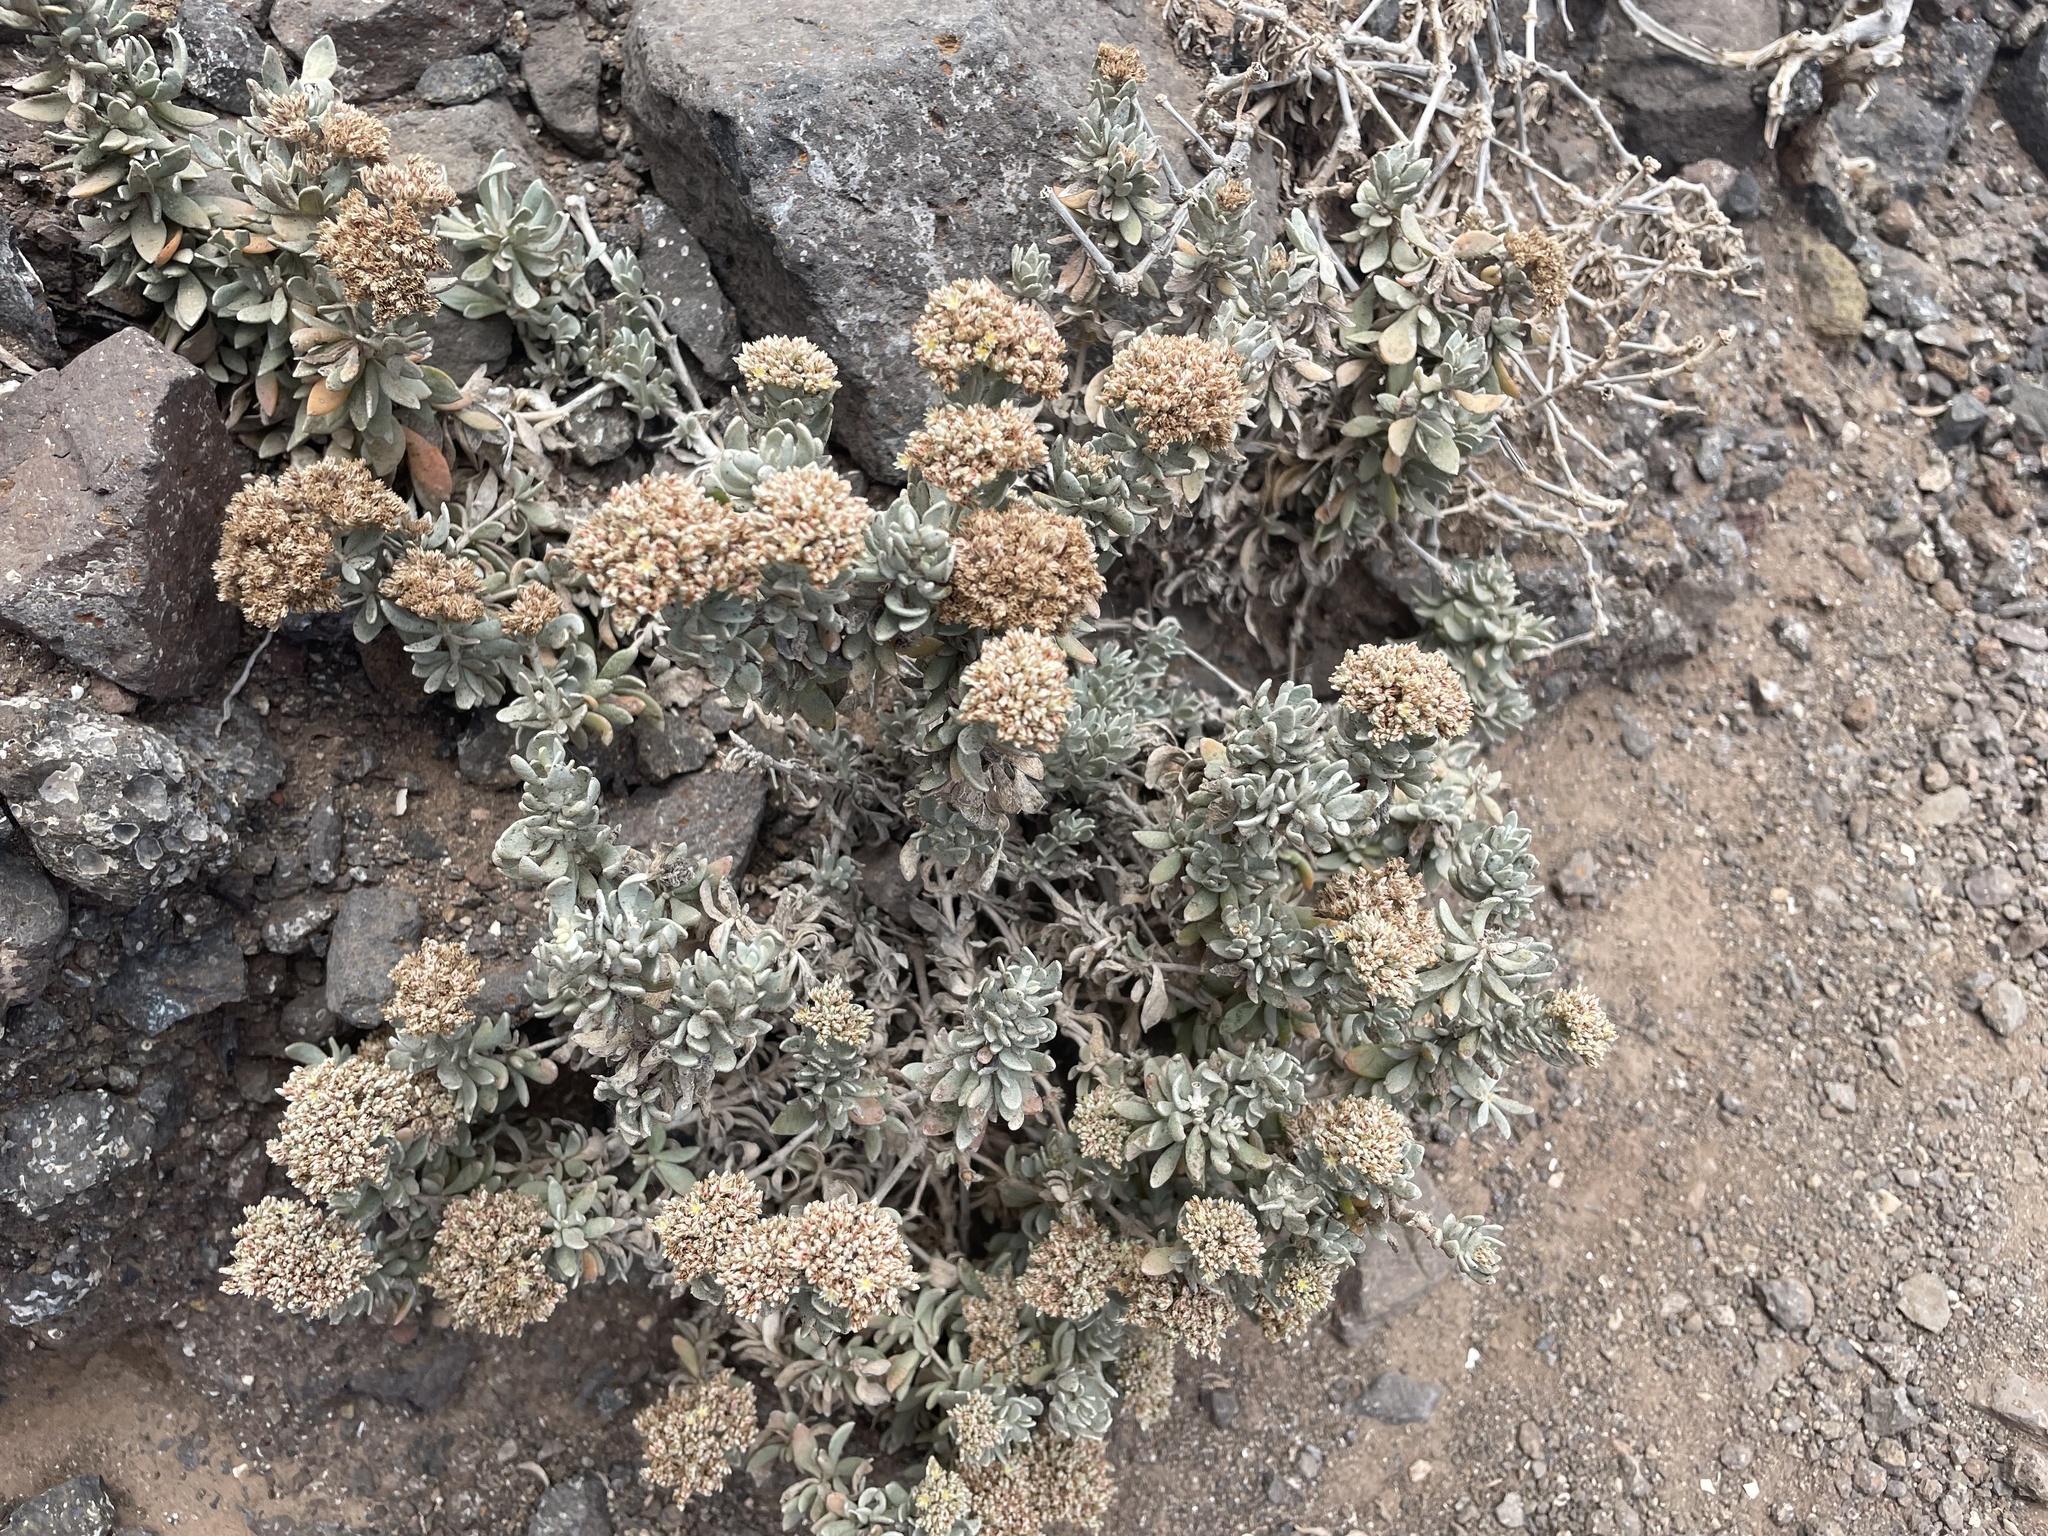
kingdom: Plantae
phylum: Tracheophyta
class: Magnoliopsida
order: Caryophyllales
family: Caryophyllaceae
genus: Polycarpaea
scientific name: Polycarpaea nivea
